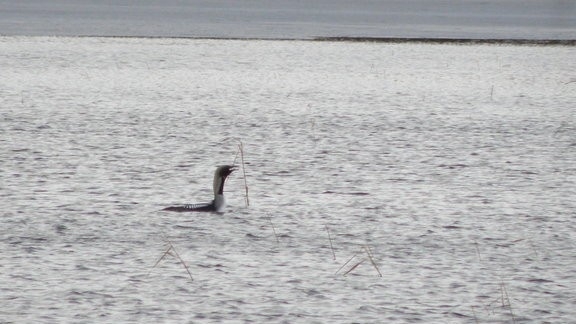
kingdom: Animalia
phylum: Chordata
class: Aves
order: Gaviiformes
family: Gaviidae
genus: Gavia
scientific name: Gavia arctica
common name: Black-throated loon
